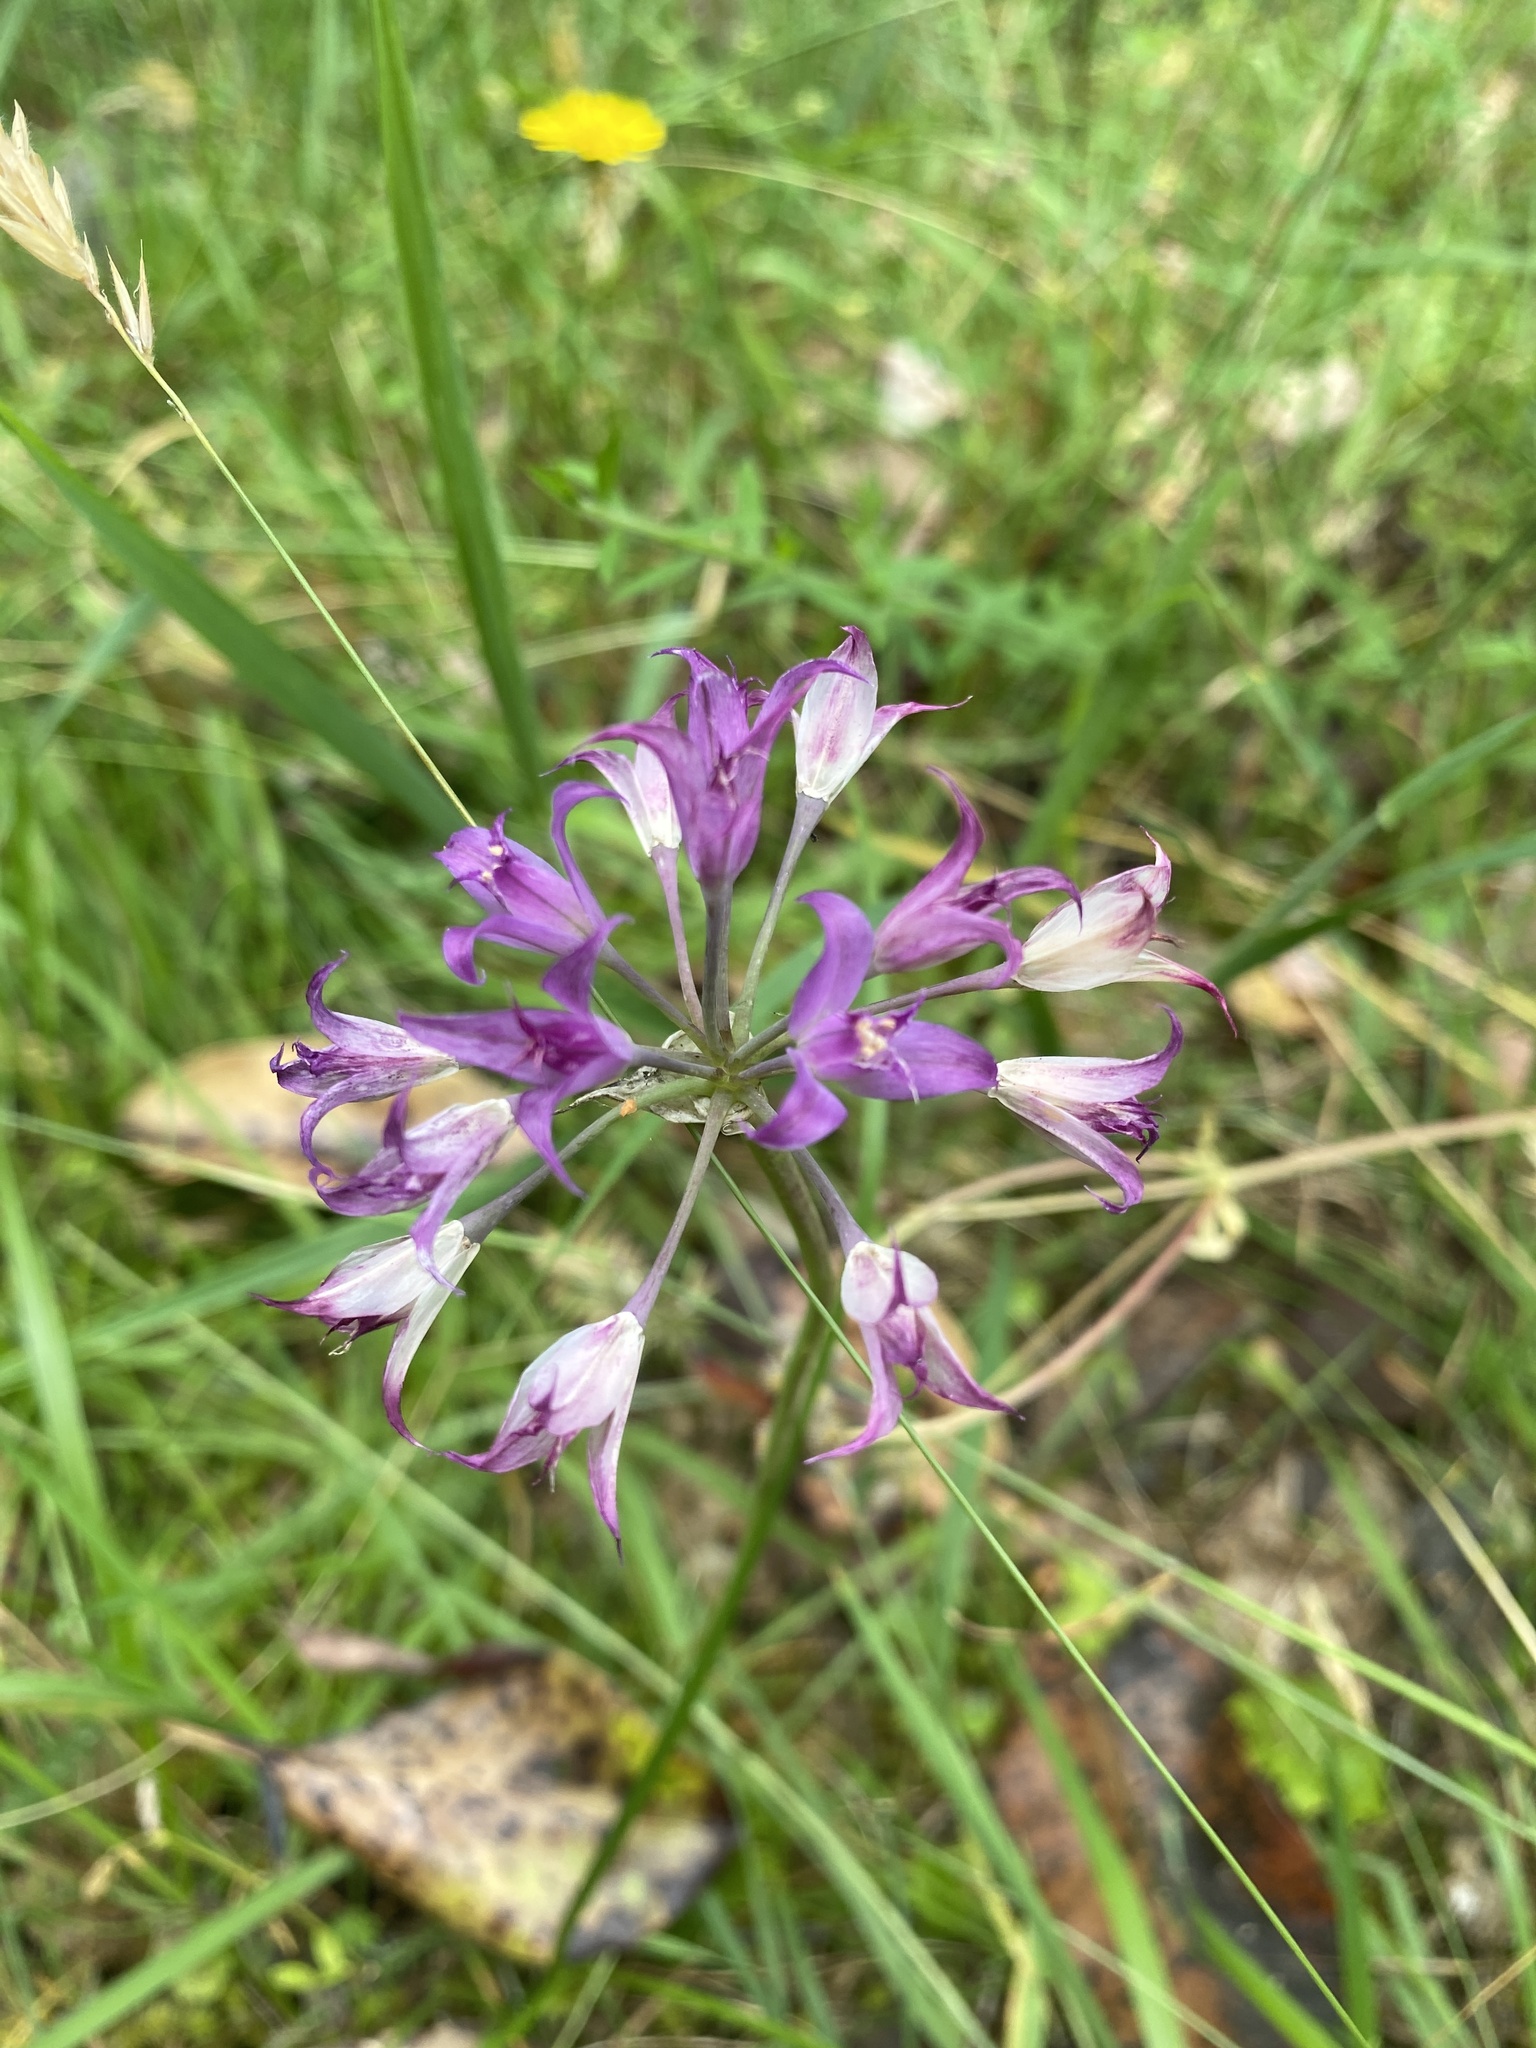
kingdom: Plantae
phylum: Tracheophyta
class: Liliopsida
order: Asparagales
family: Amaryllidaceae
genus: Allium
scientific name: Allium acuminatum
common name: Hooker's onion
